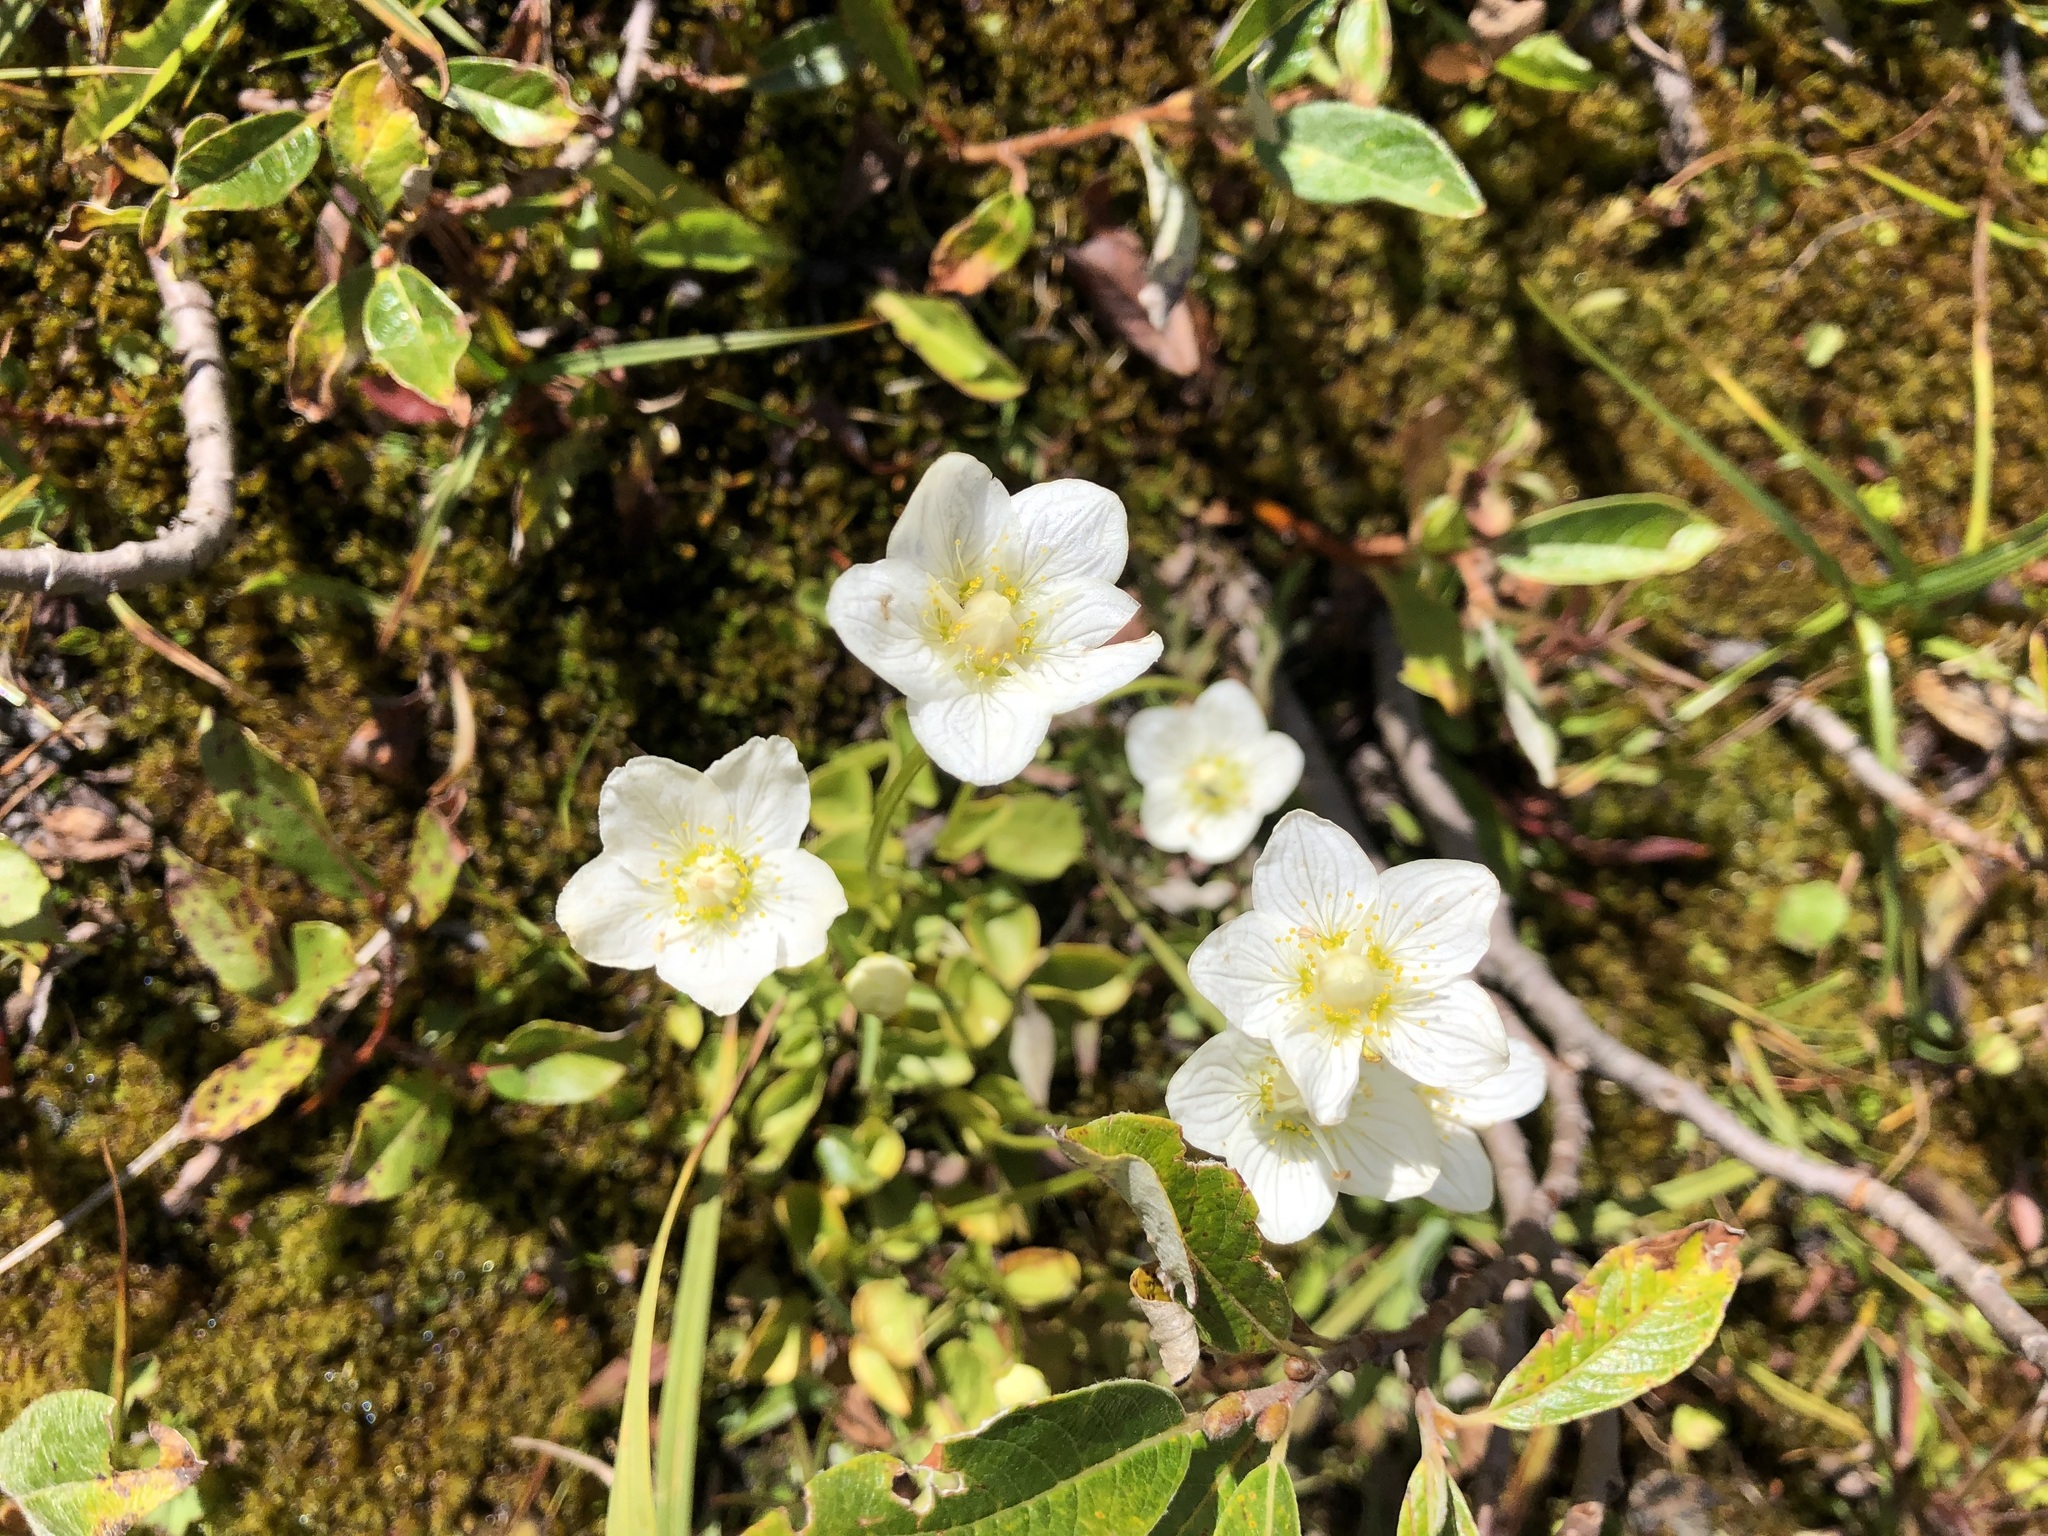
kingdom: Plantae
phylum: Tracheophyta
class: Magnoliopsida
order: Celastrales
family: Parnassiaceae
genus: Parnassia
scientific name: Parnassia palustris
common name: Grass-of-parnassus
